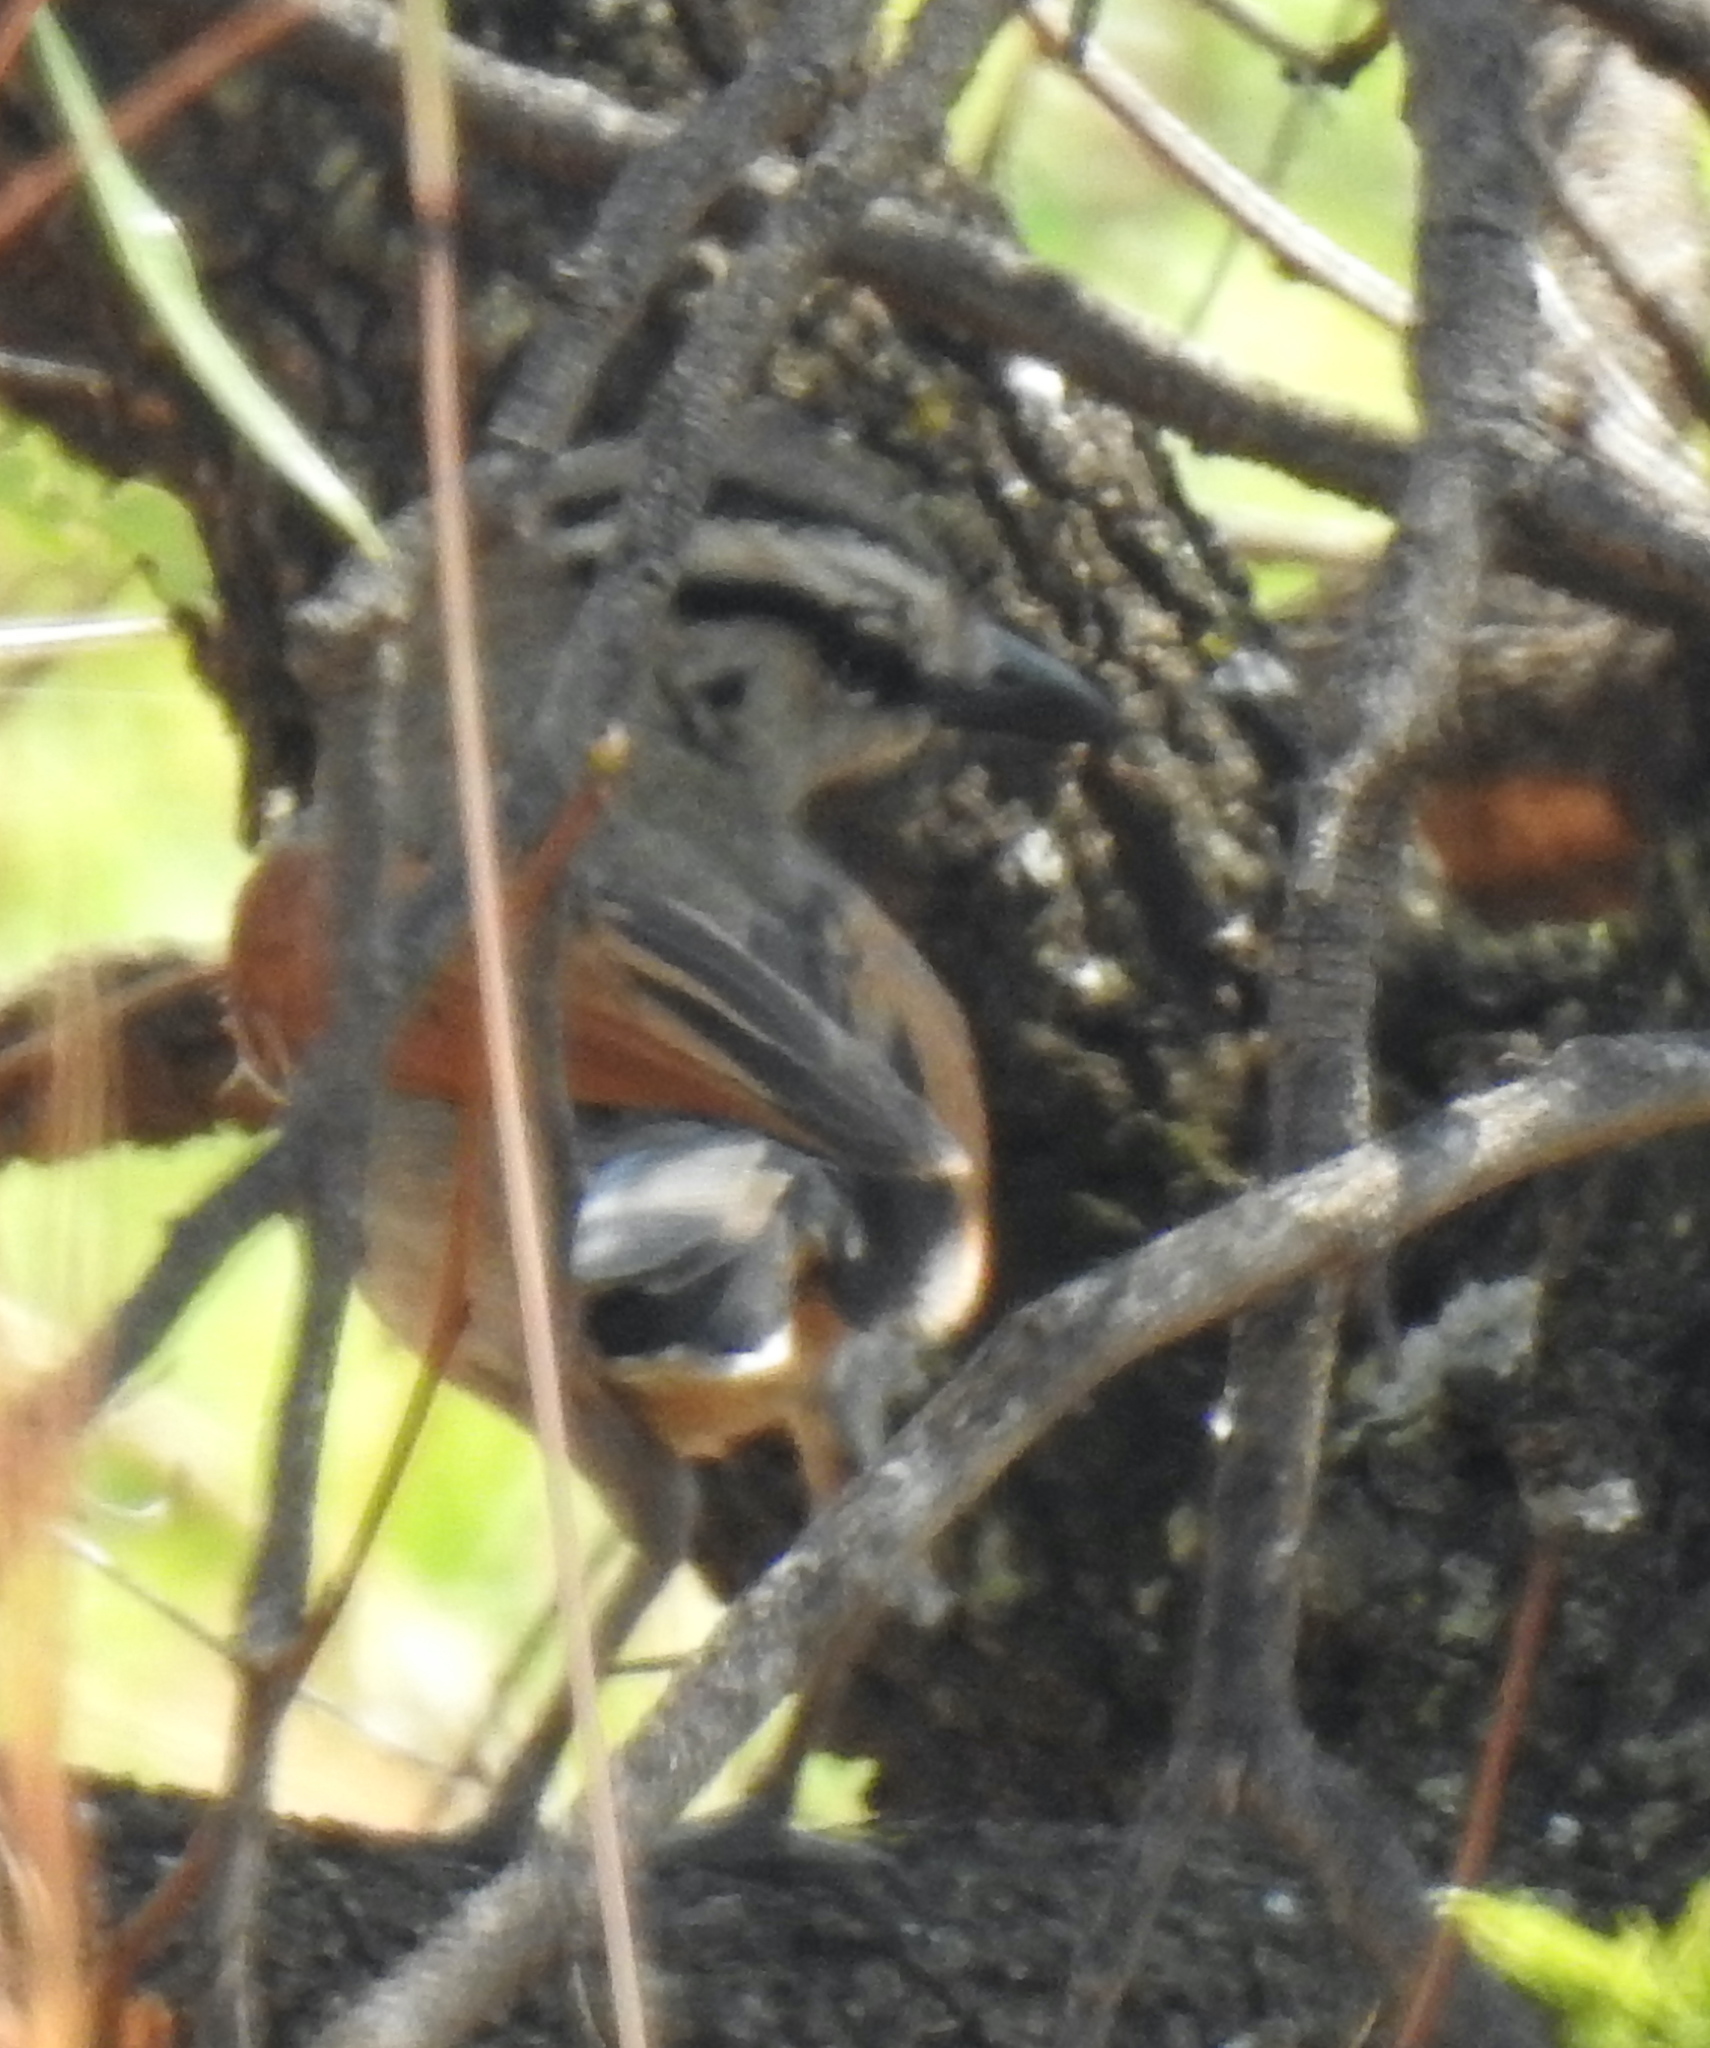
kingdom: Animalia
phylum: Chordata
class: Aves
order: Passeriformes
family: Malaconotidae
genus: Tchagra
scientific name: Tchagra australis
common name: Brown-crowned tchagra
